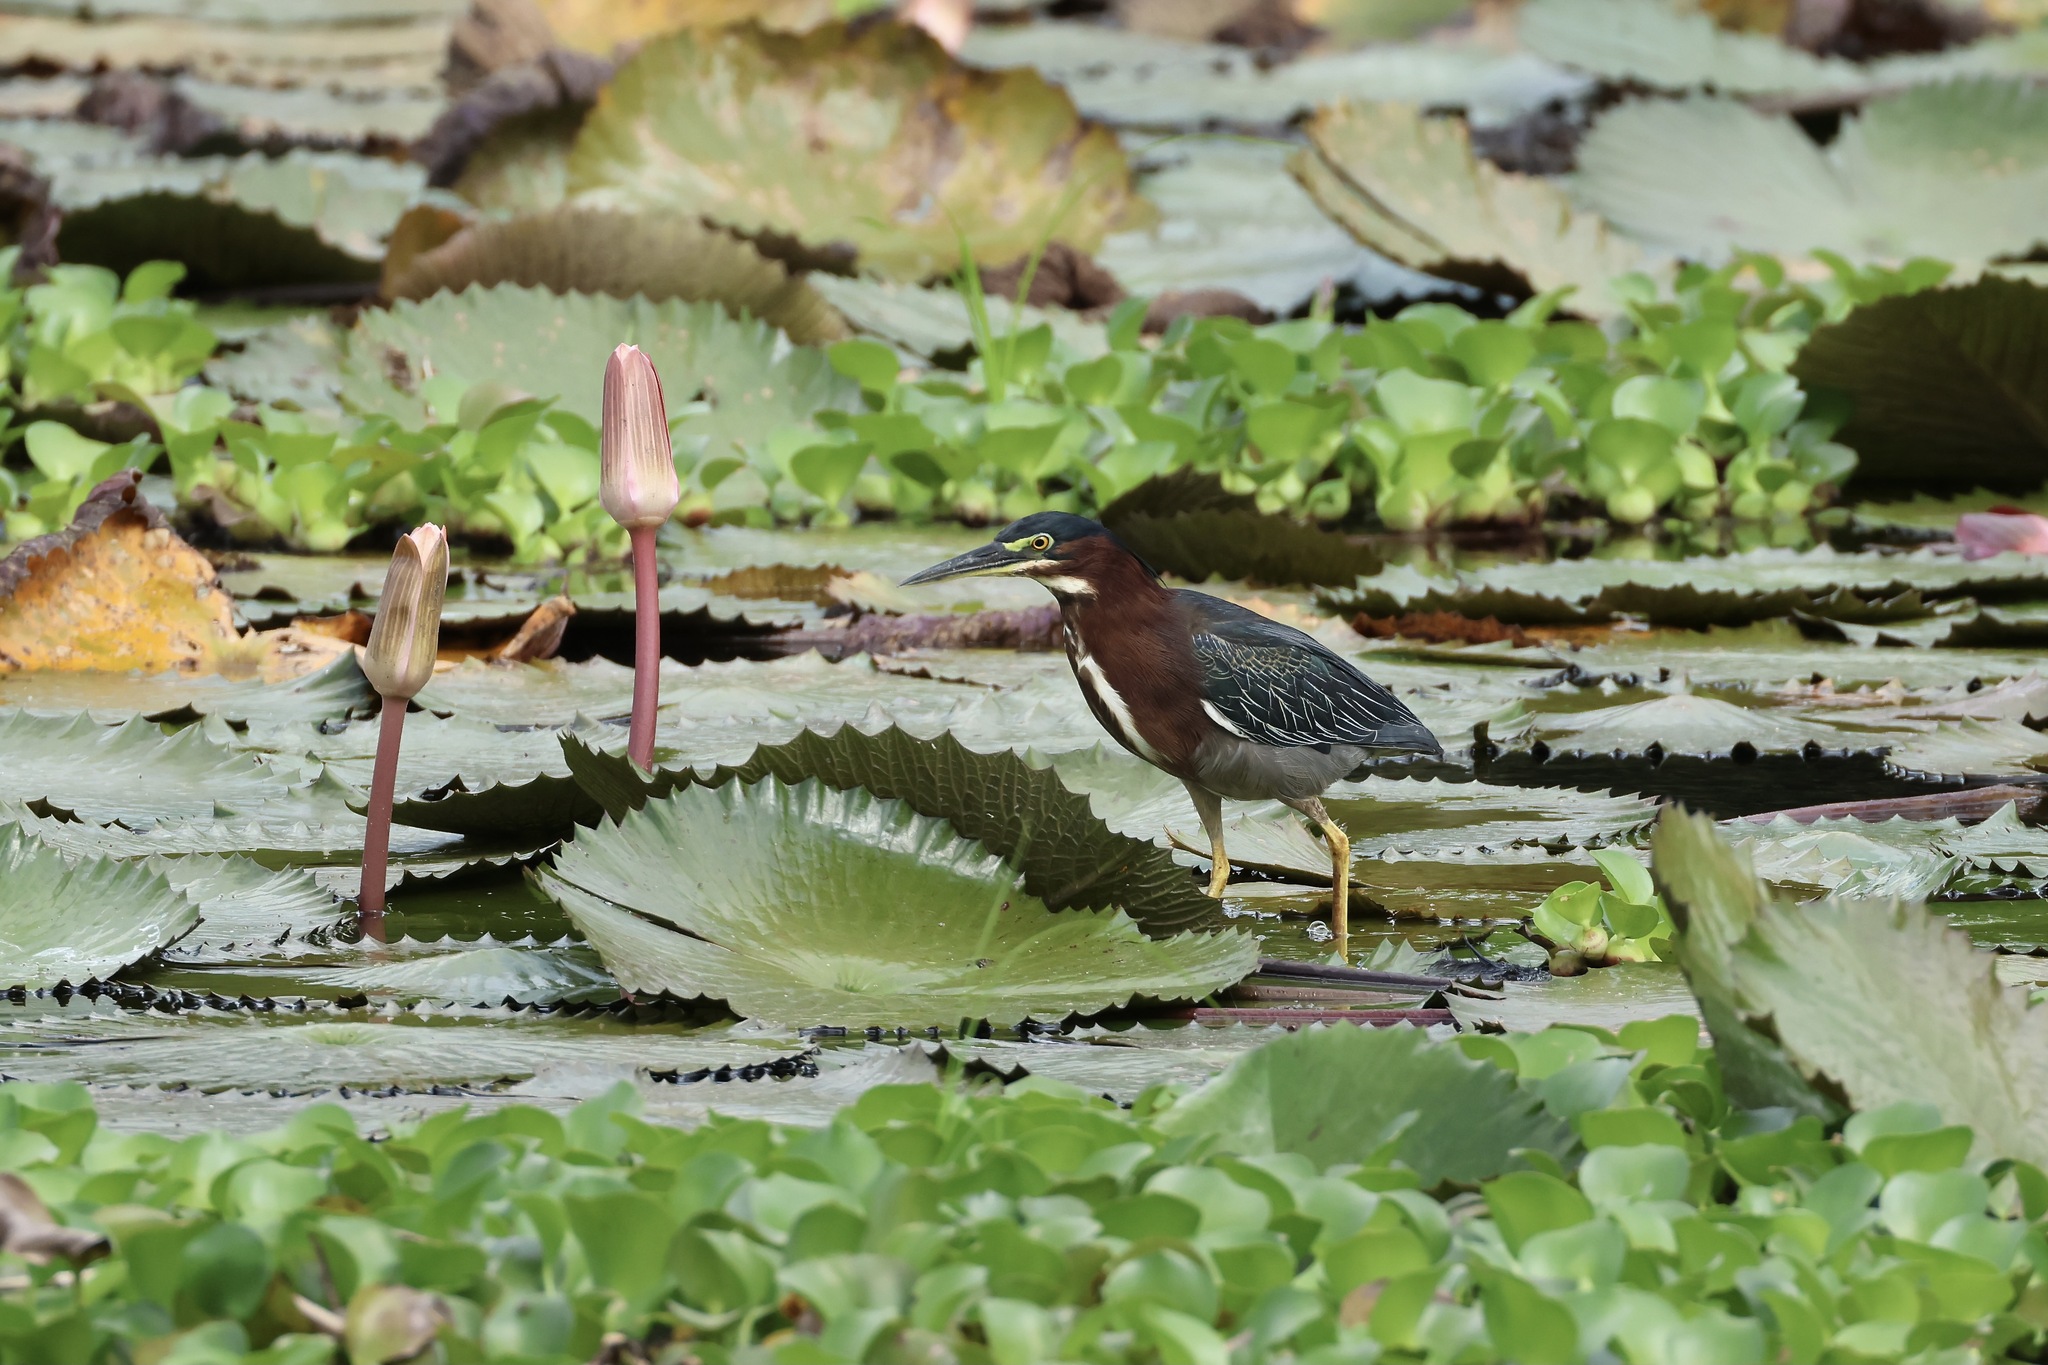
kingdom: Animalia
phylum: Chordata
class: Aves
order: Pelecaniformes
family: Ardeidae
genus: Butorides
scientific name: Butorides virescens
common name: Green heron
